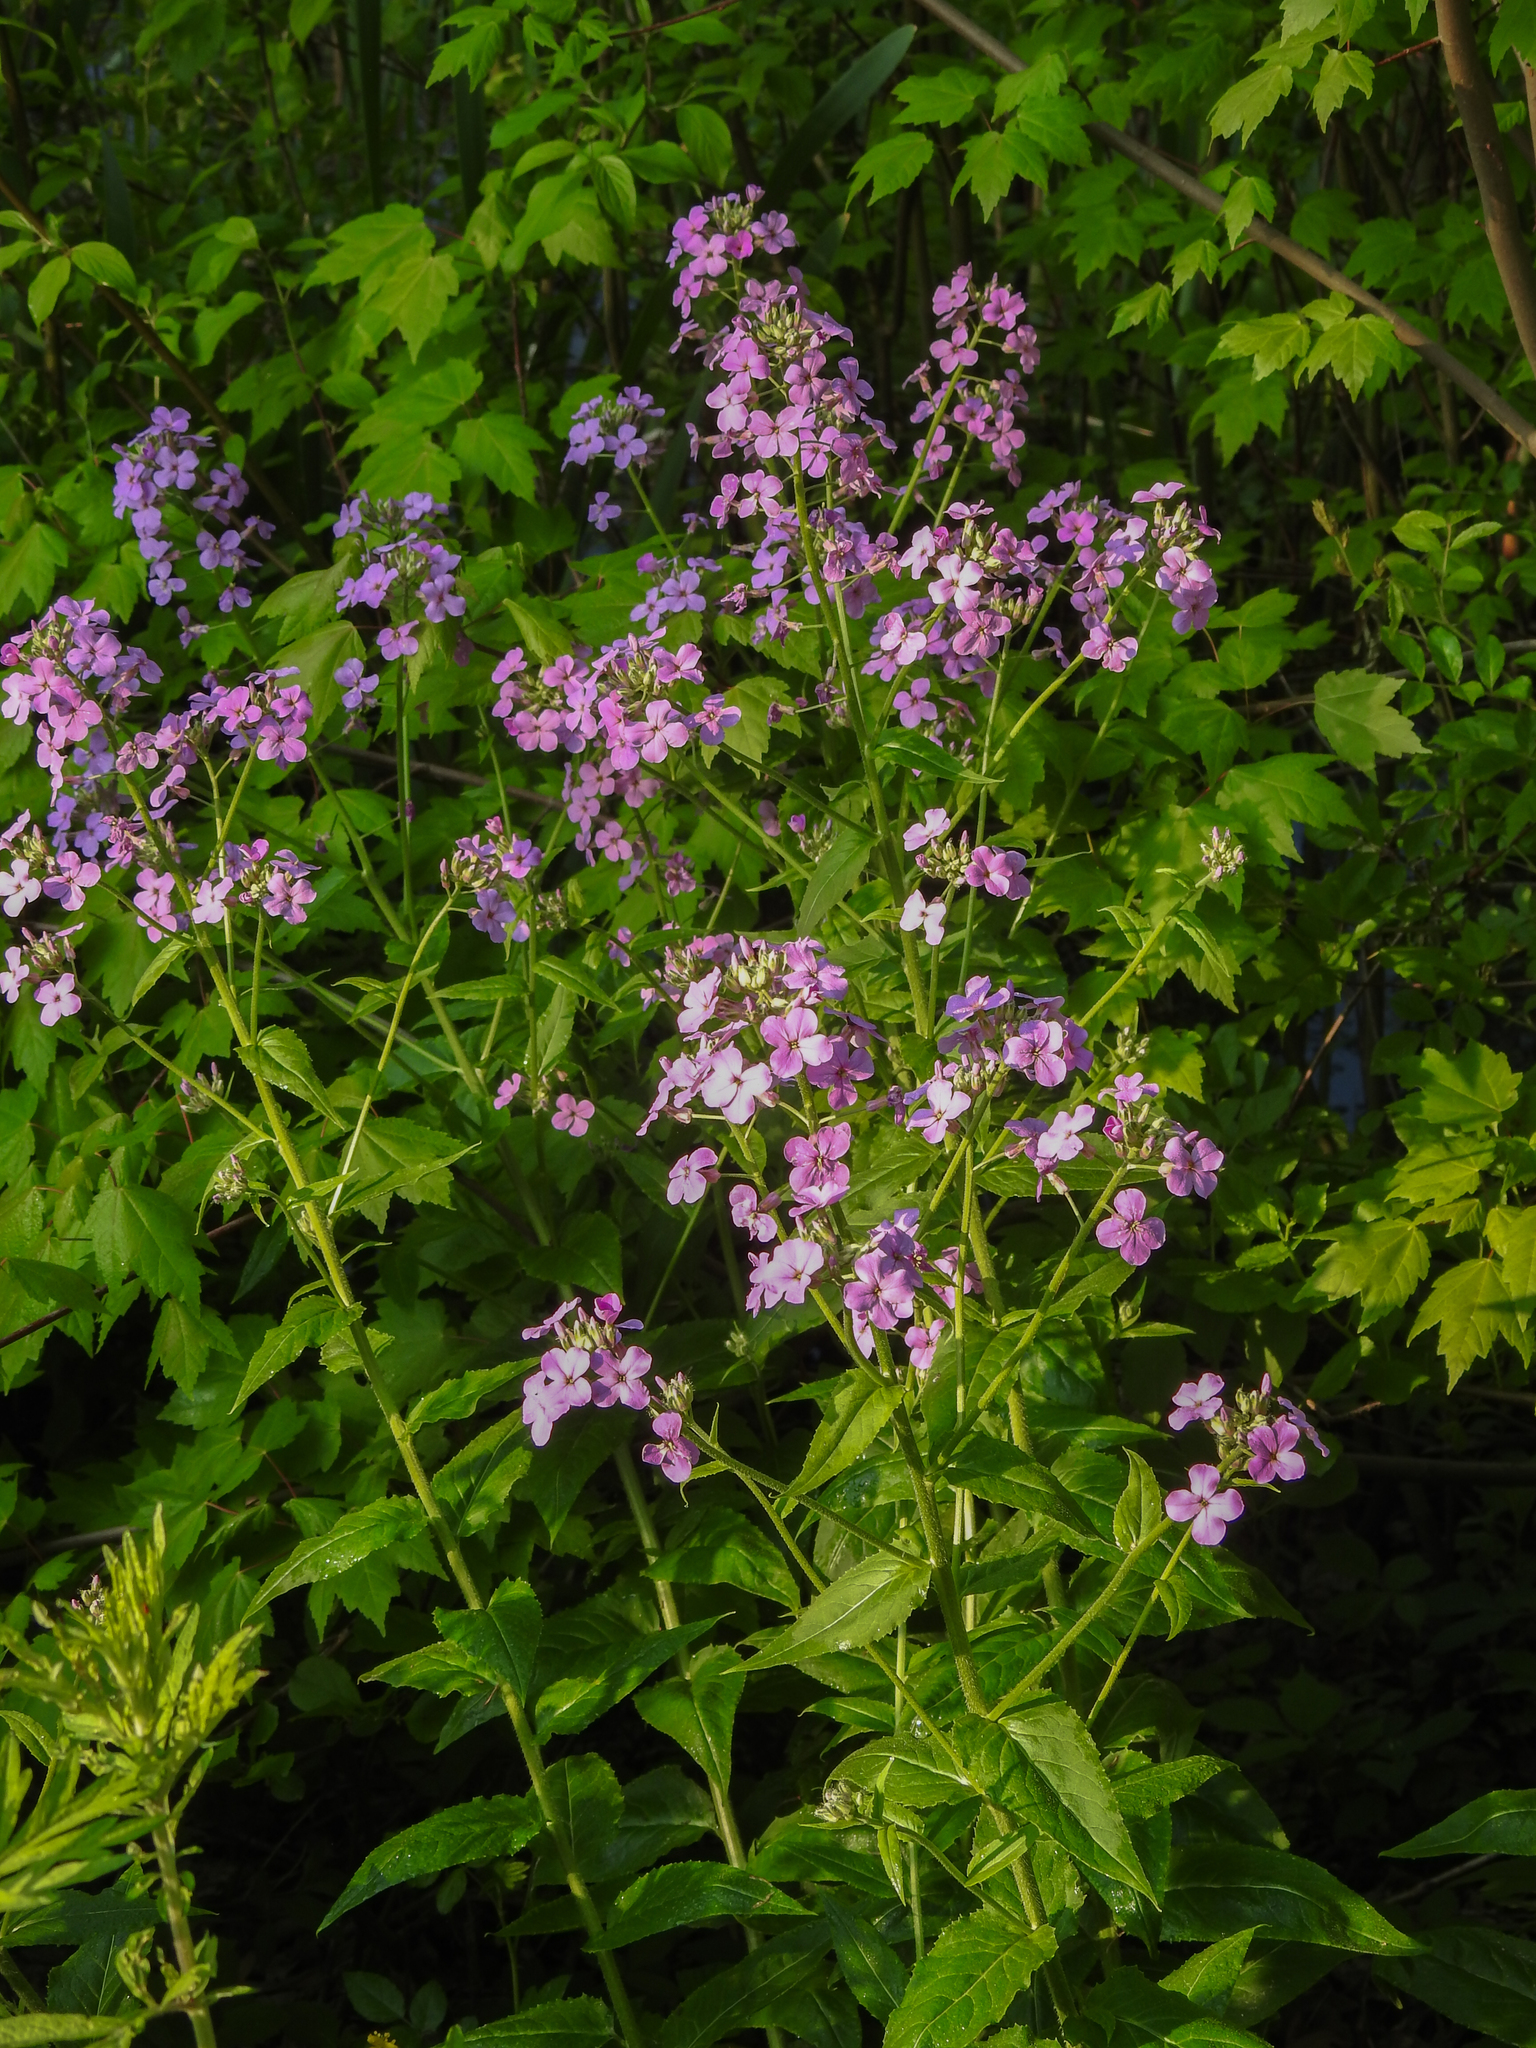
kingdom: Plantae
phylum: Tracheophyta
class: Magnoliopsida
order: Brassicales
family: Brassicaceae
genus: Hesperis
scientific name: Hesperis matronalis
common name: Dame's-violet
